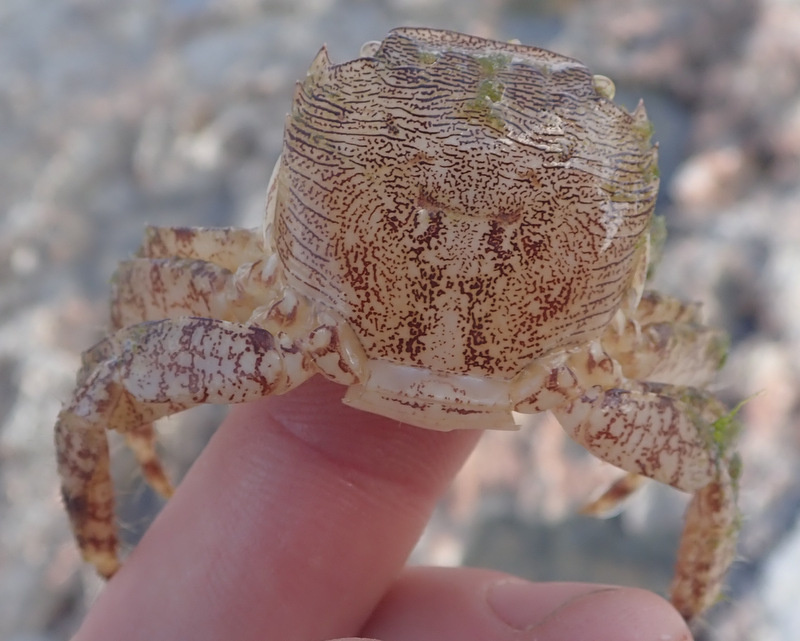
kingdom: Animalia
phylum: Arthropoda
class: Malacostraca
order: Decapoda
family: Grapsidae
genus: Pachygrapsus
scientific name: Pachygrapsus marmoratus
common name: Marbled rock crab
